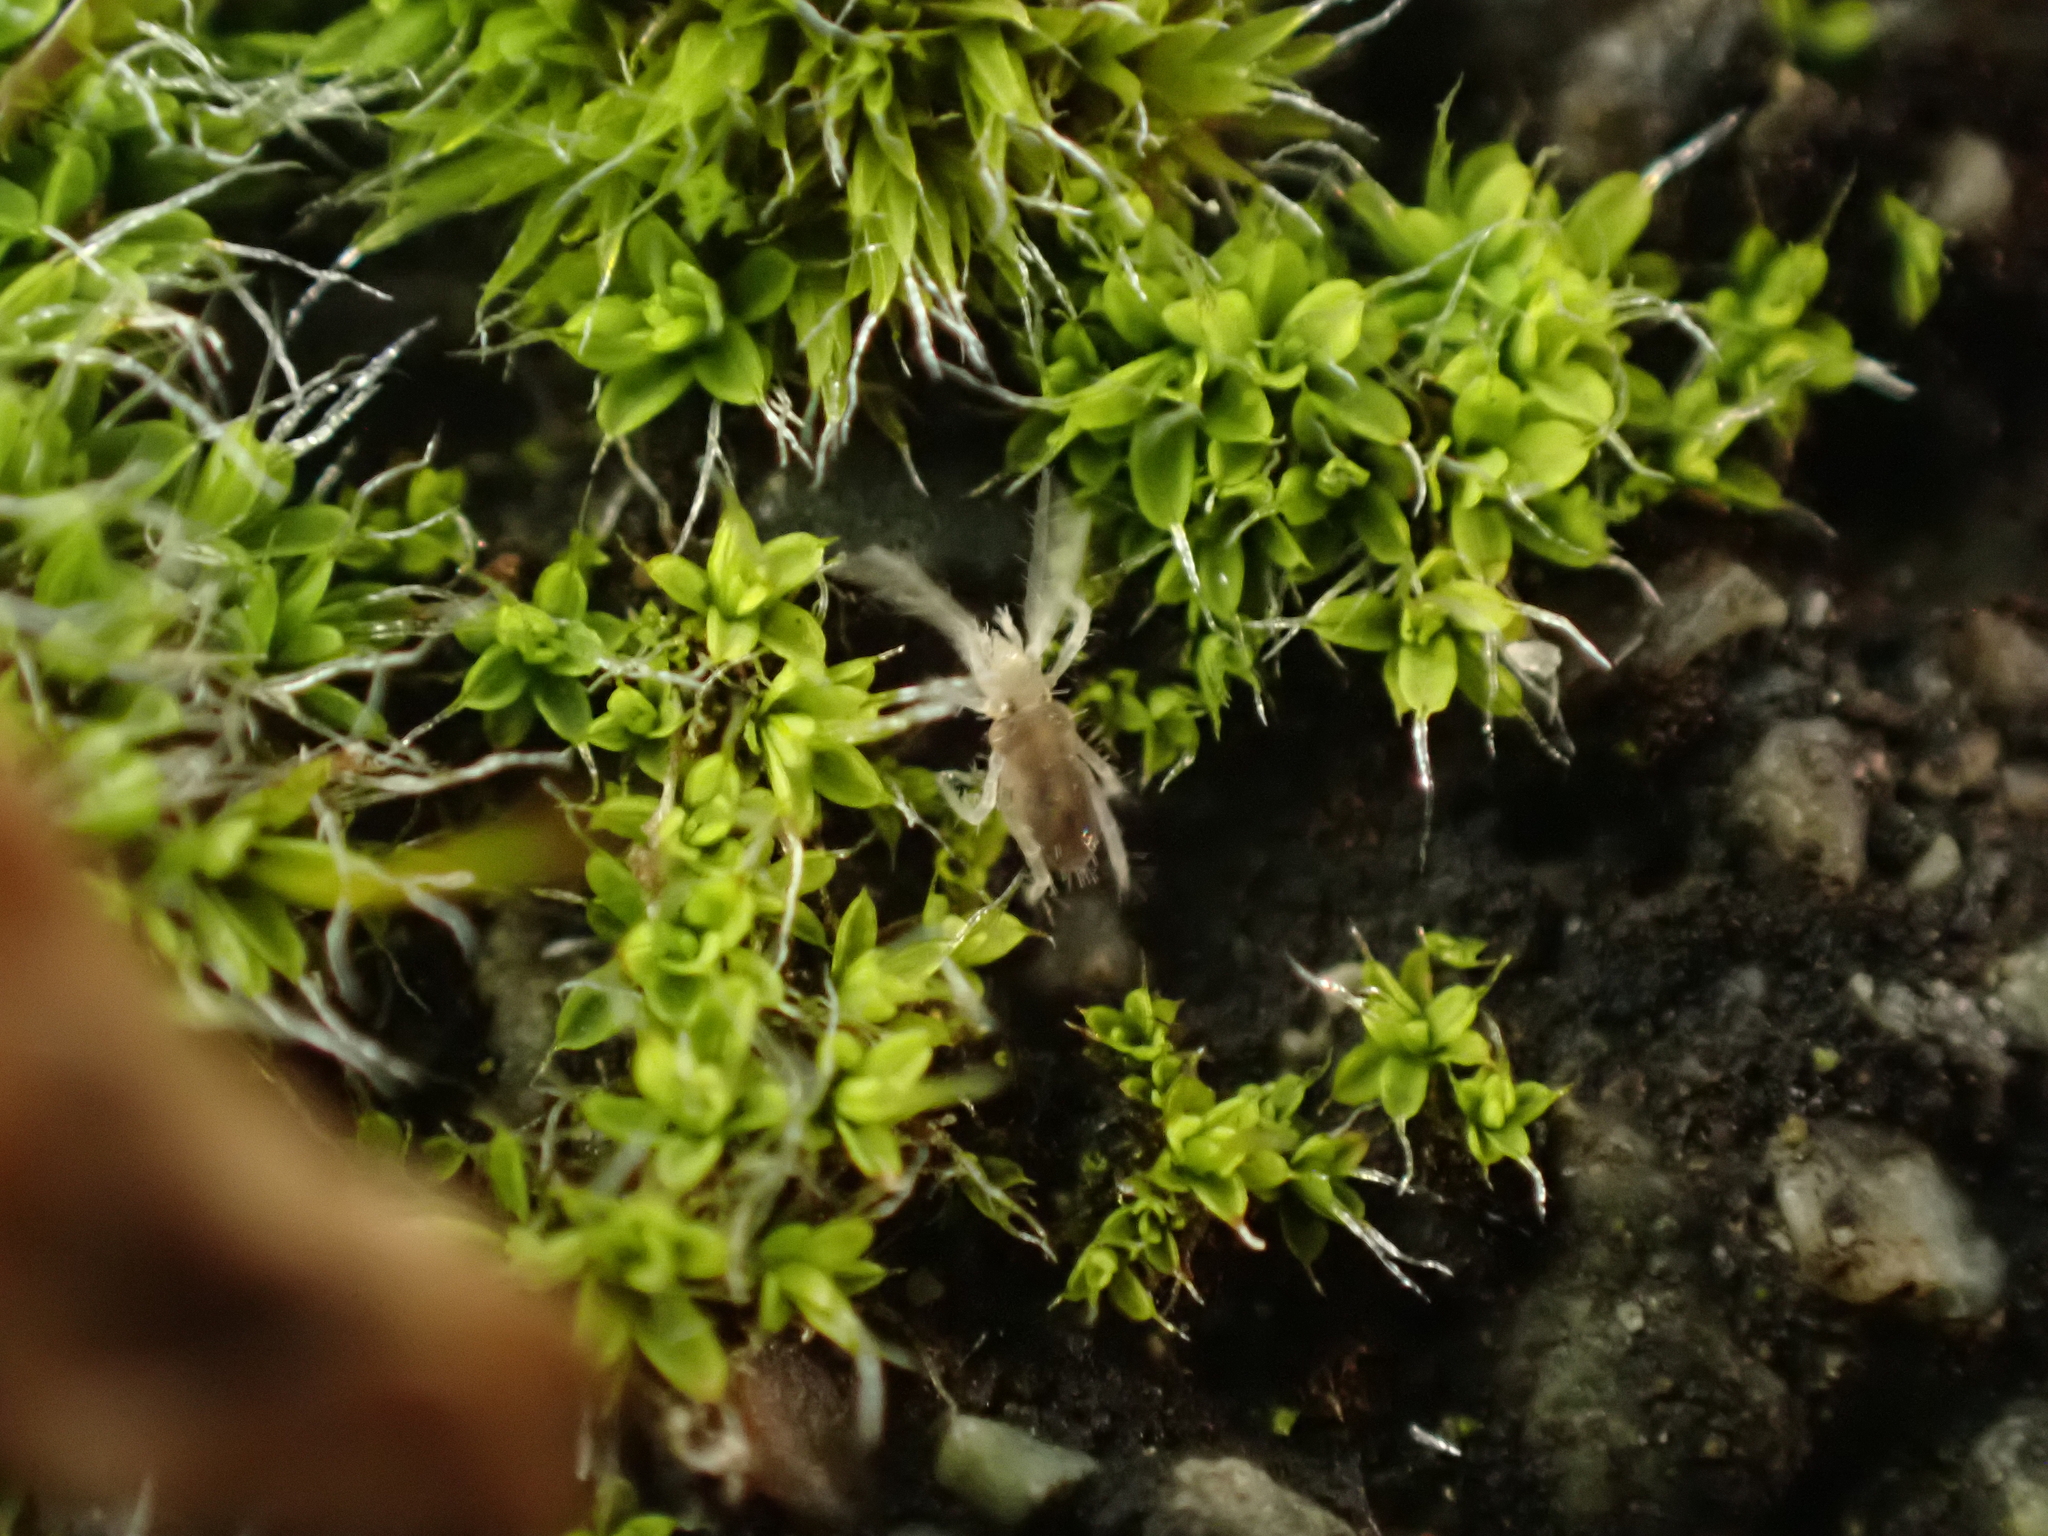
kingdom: Plantae
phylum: Bryophyta
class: Bryopsida
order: Pottiales
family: Pottiaceae
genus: Tortula
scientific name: Tortula muralis
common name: Wall screw-moss
